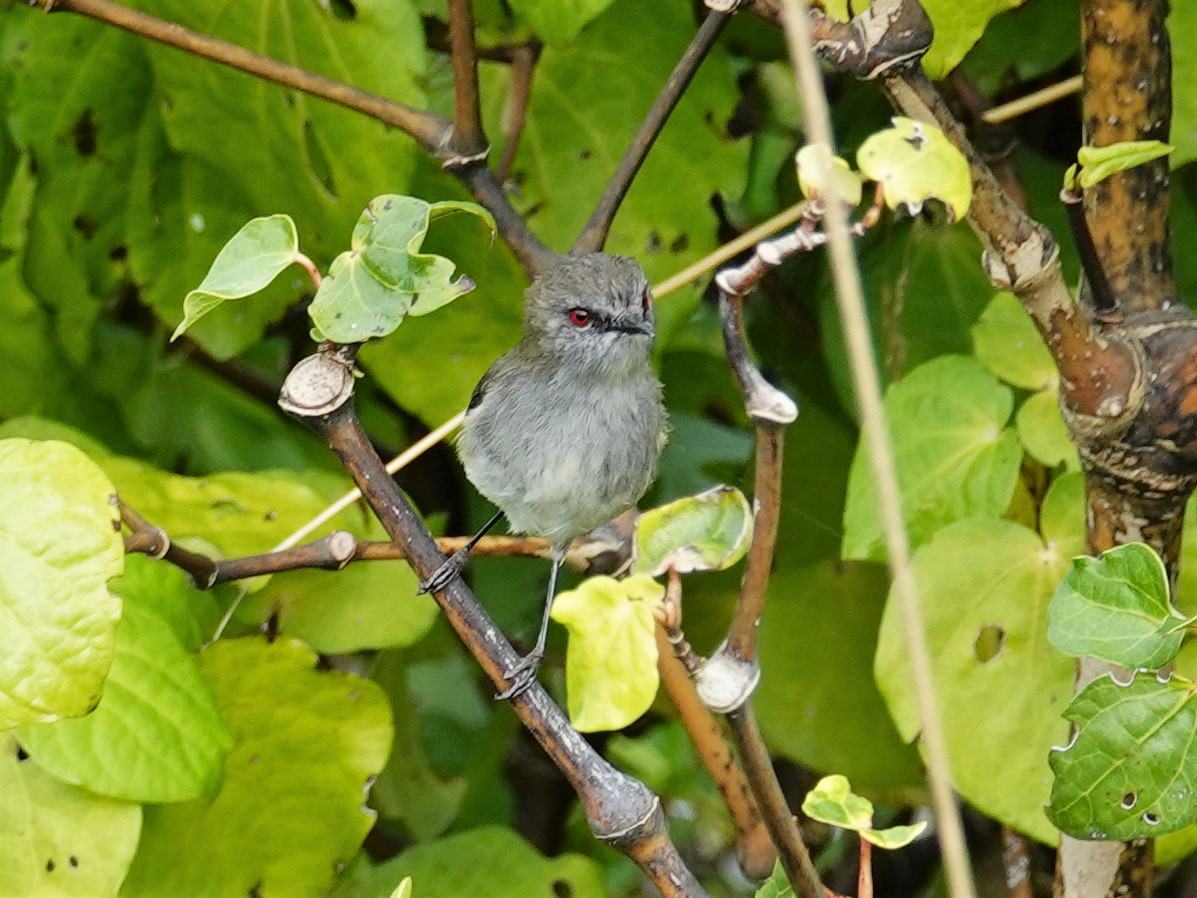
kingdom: Animalia
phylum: Chordata
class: Aves
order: Passeriformes
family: Acanthizidae
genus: Gerygone
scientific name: Gerygone igata
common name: Grey gerygone
